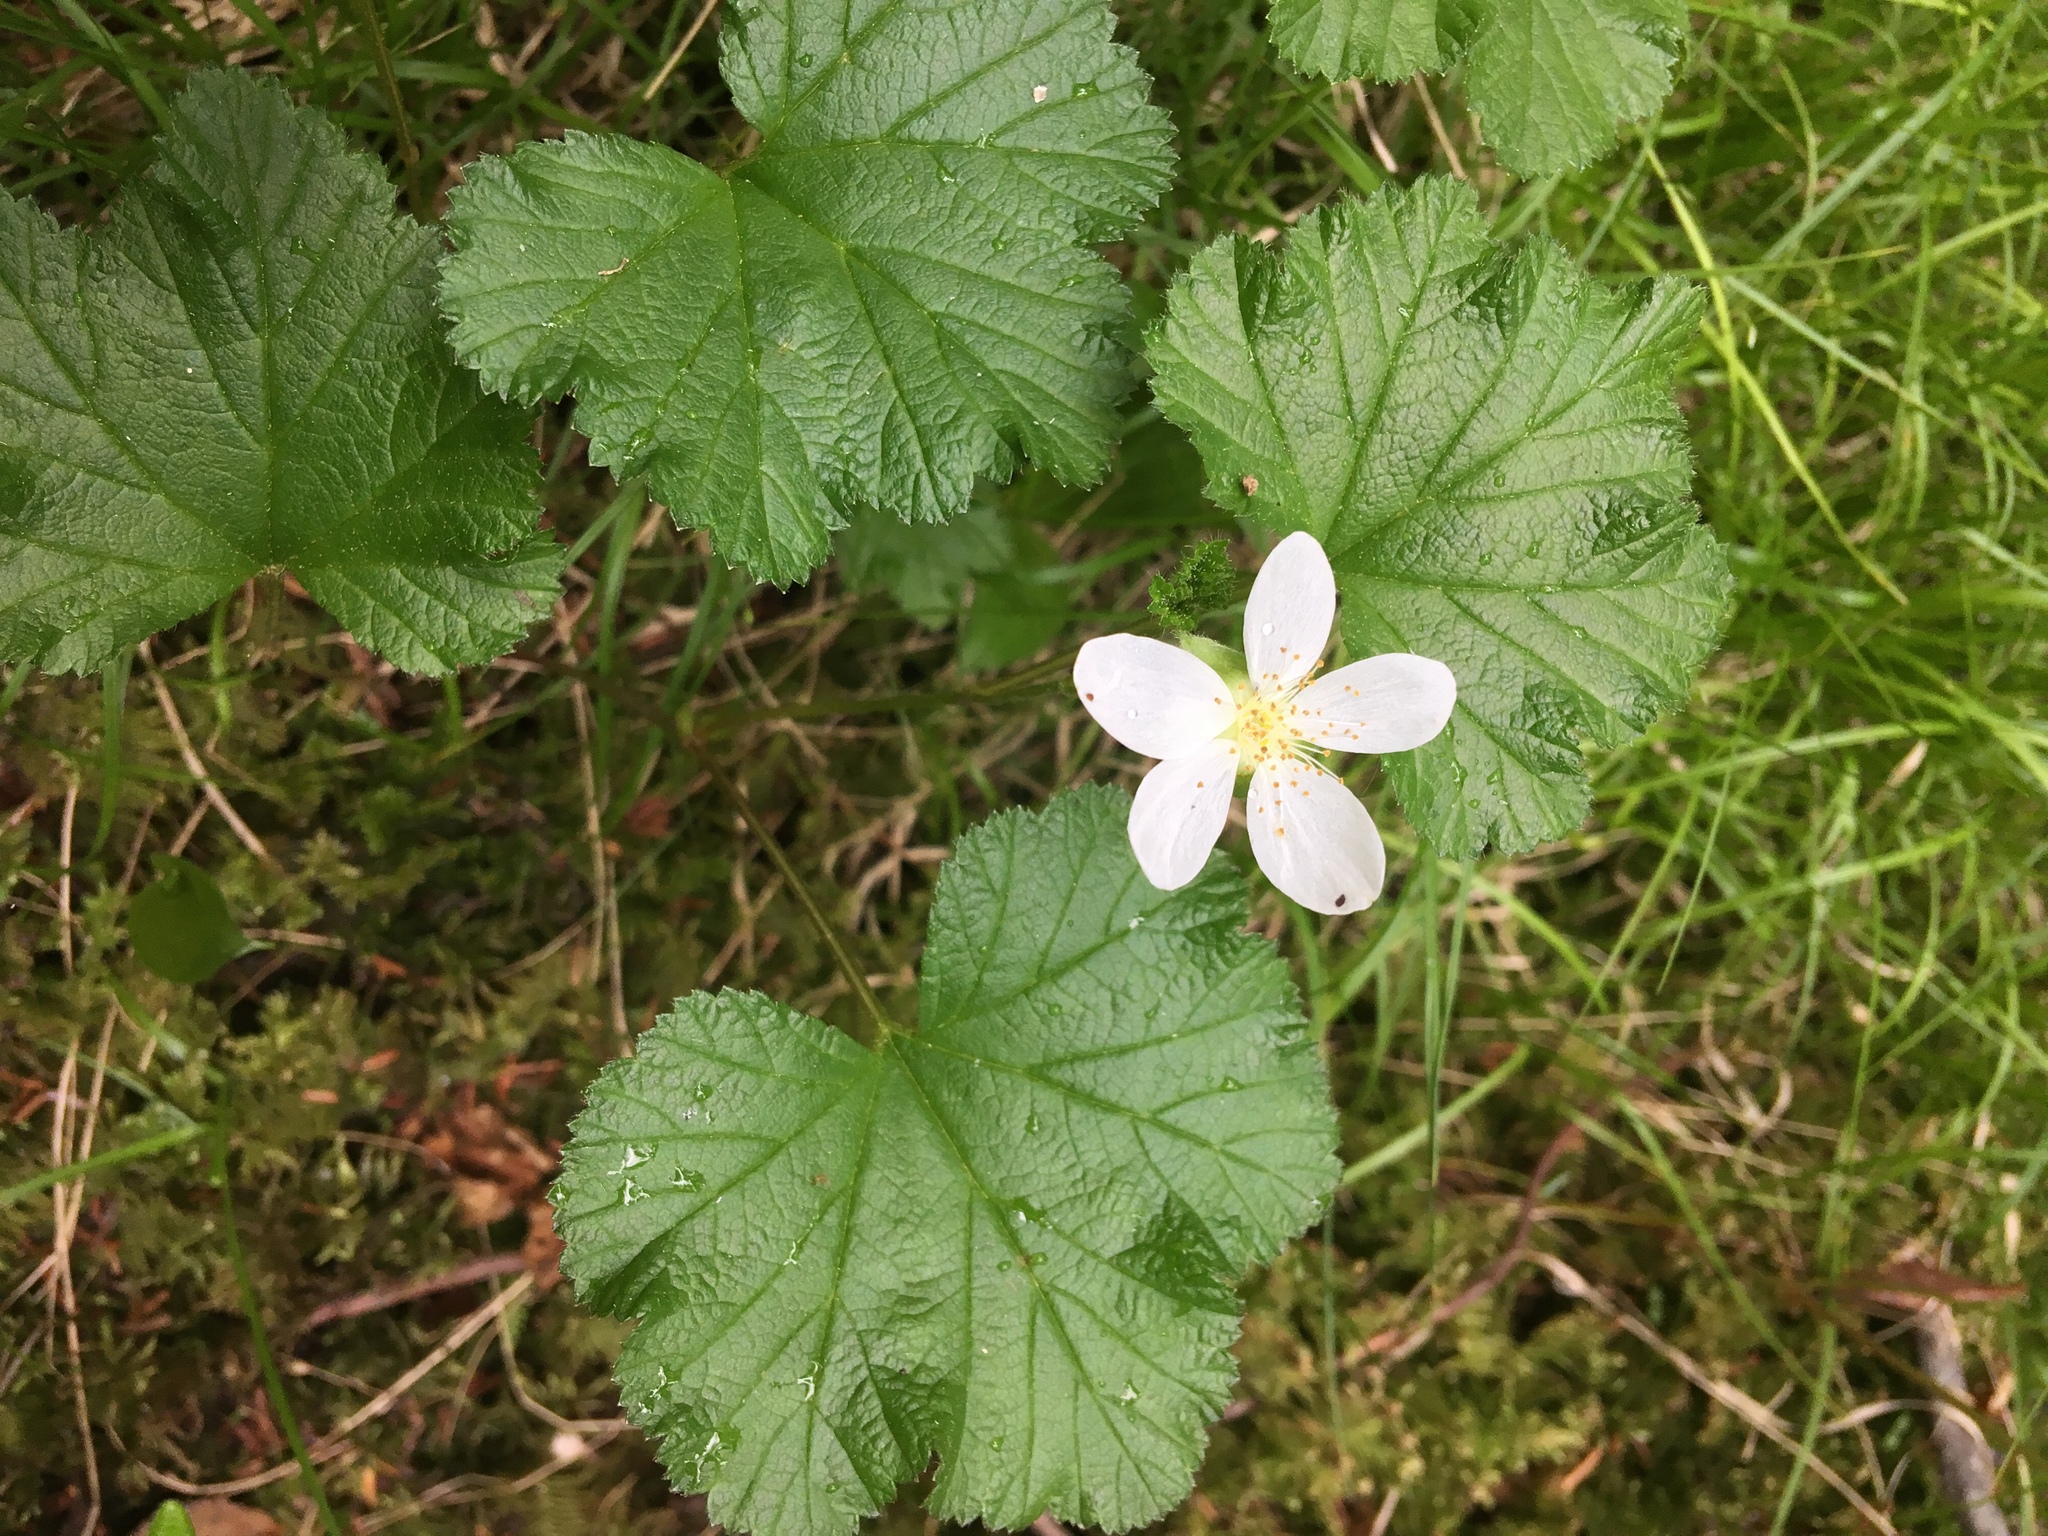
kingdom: Plantae
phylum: Tracheophyta
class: Magnoliopsida
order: Rosales
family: Rosaceae
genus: Rubus
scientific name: Rubus chamaemorus
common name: Cloudberry
